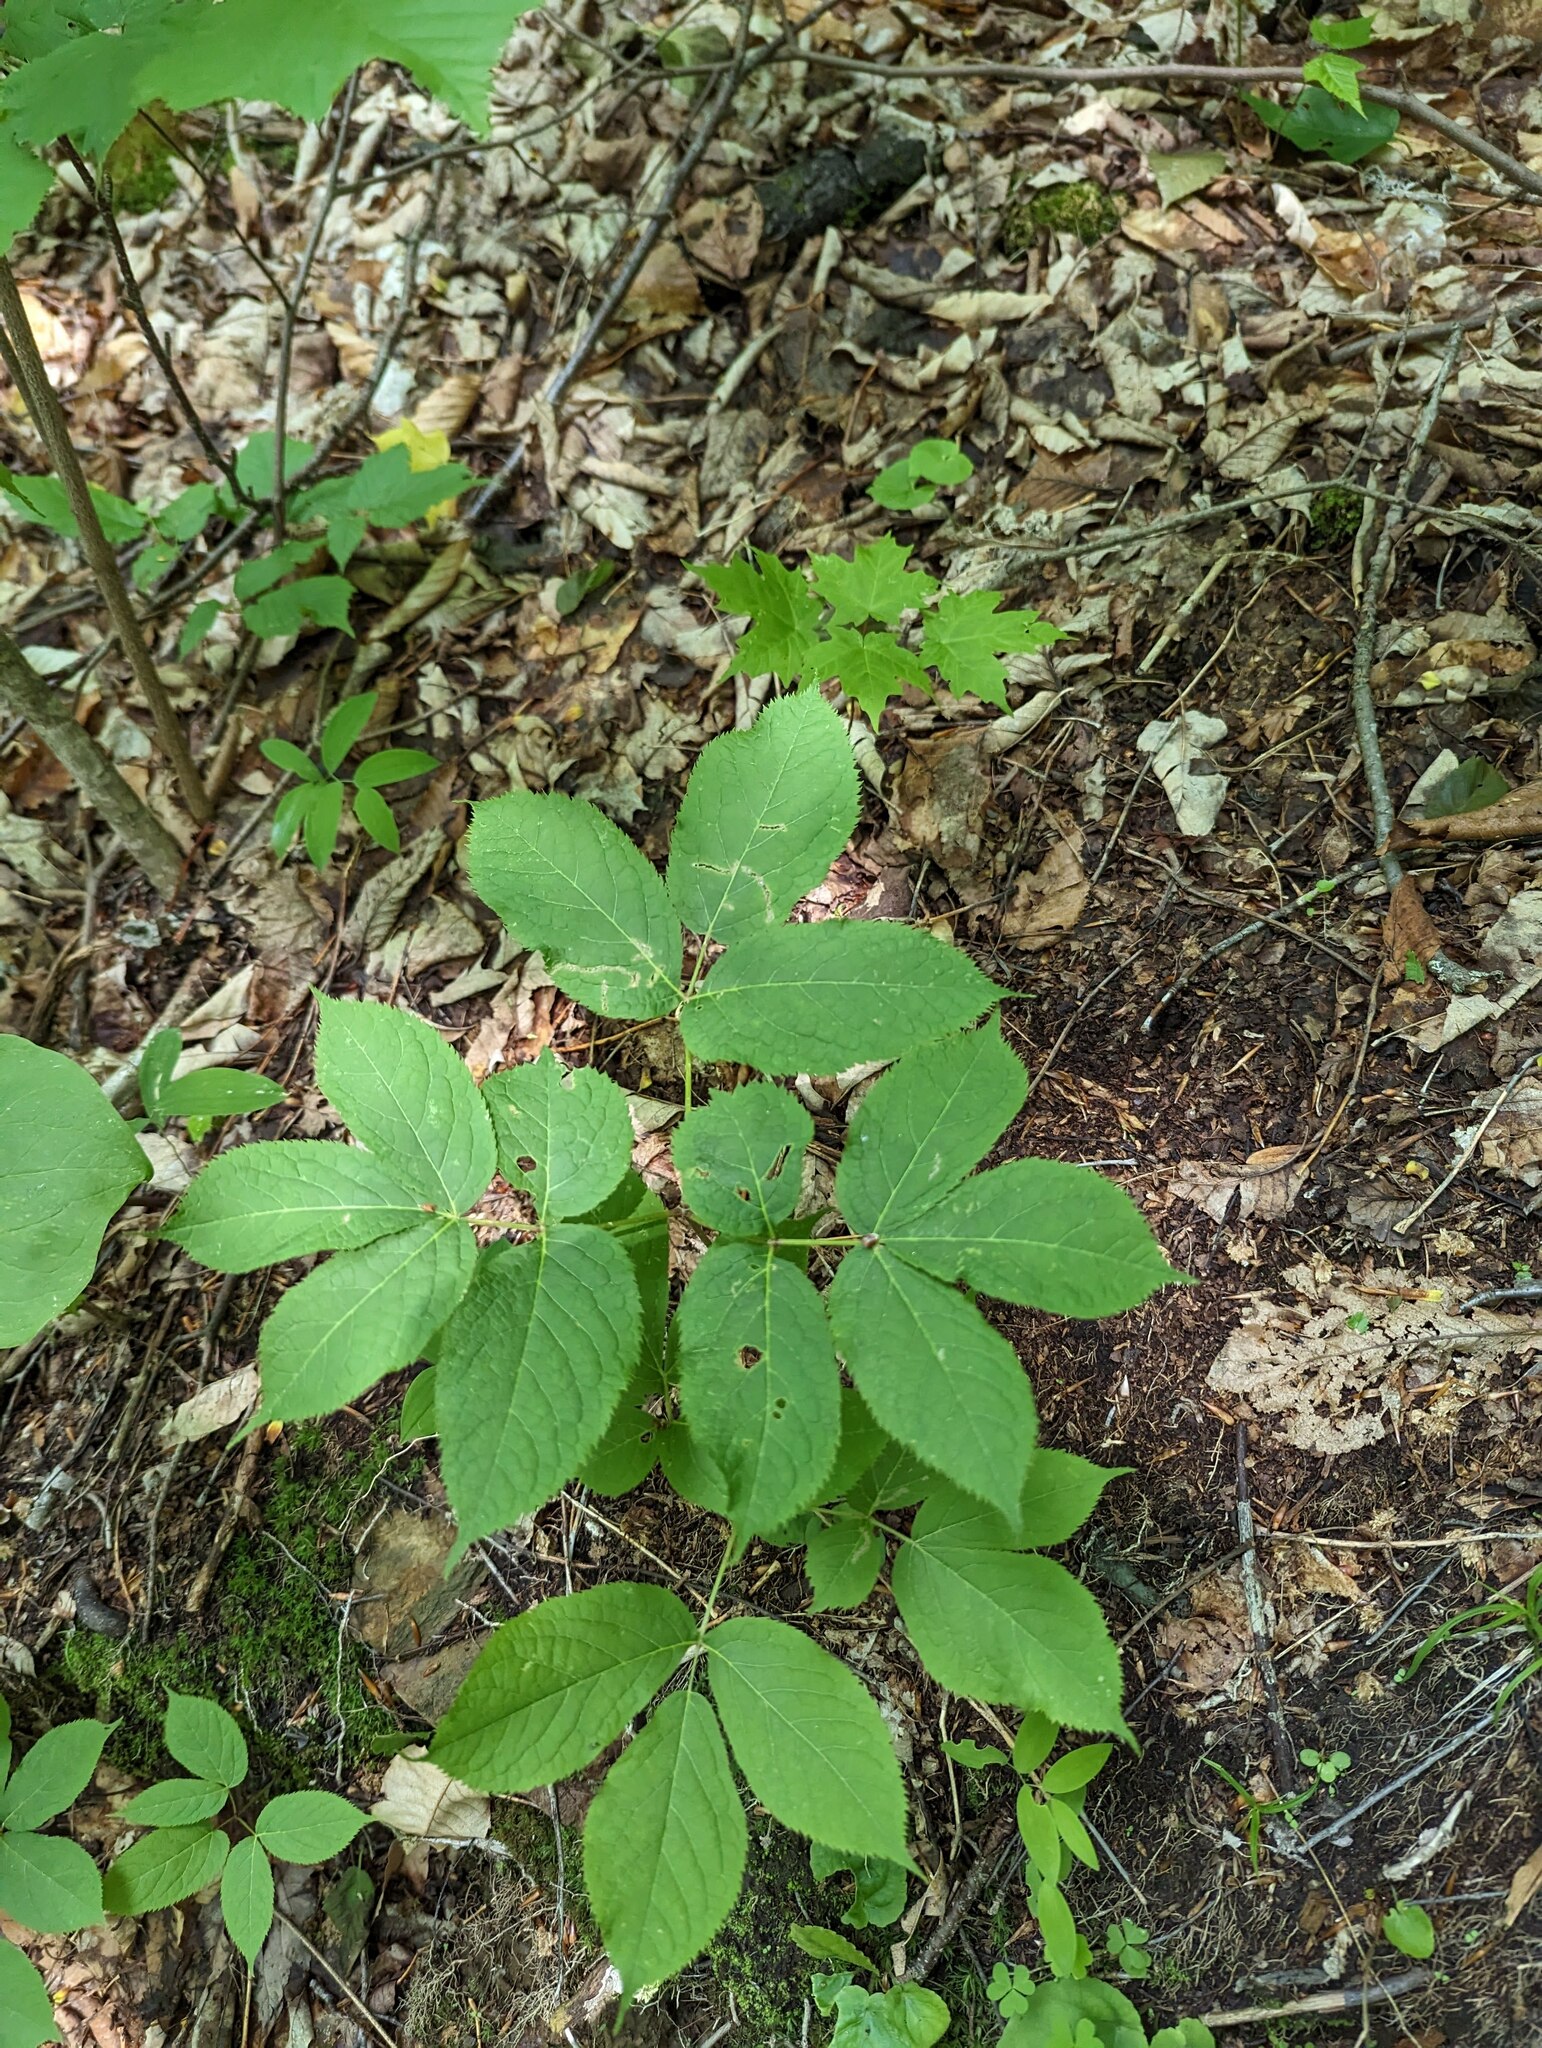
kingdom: Plantae
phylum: Tracheophyta
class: Magnoliopsida
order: Apiales
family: Araliaceae
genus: Aralia
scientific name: Aralia nudicaulis
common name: Wild sarsaparilla
